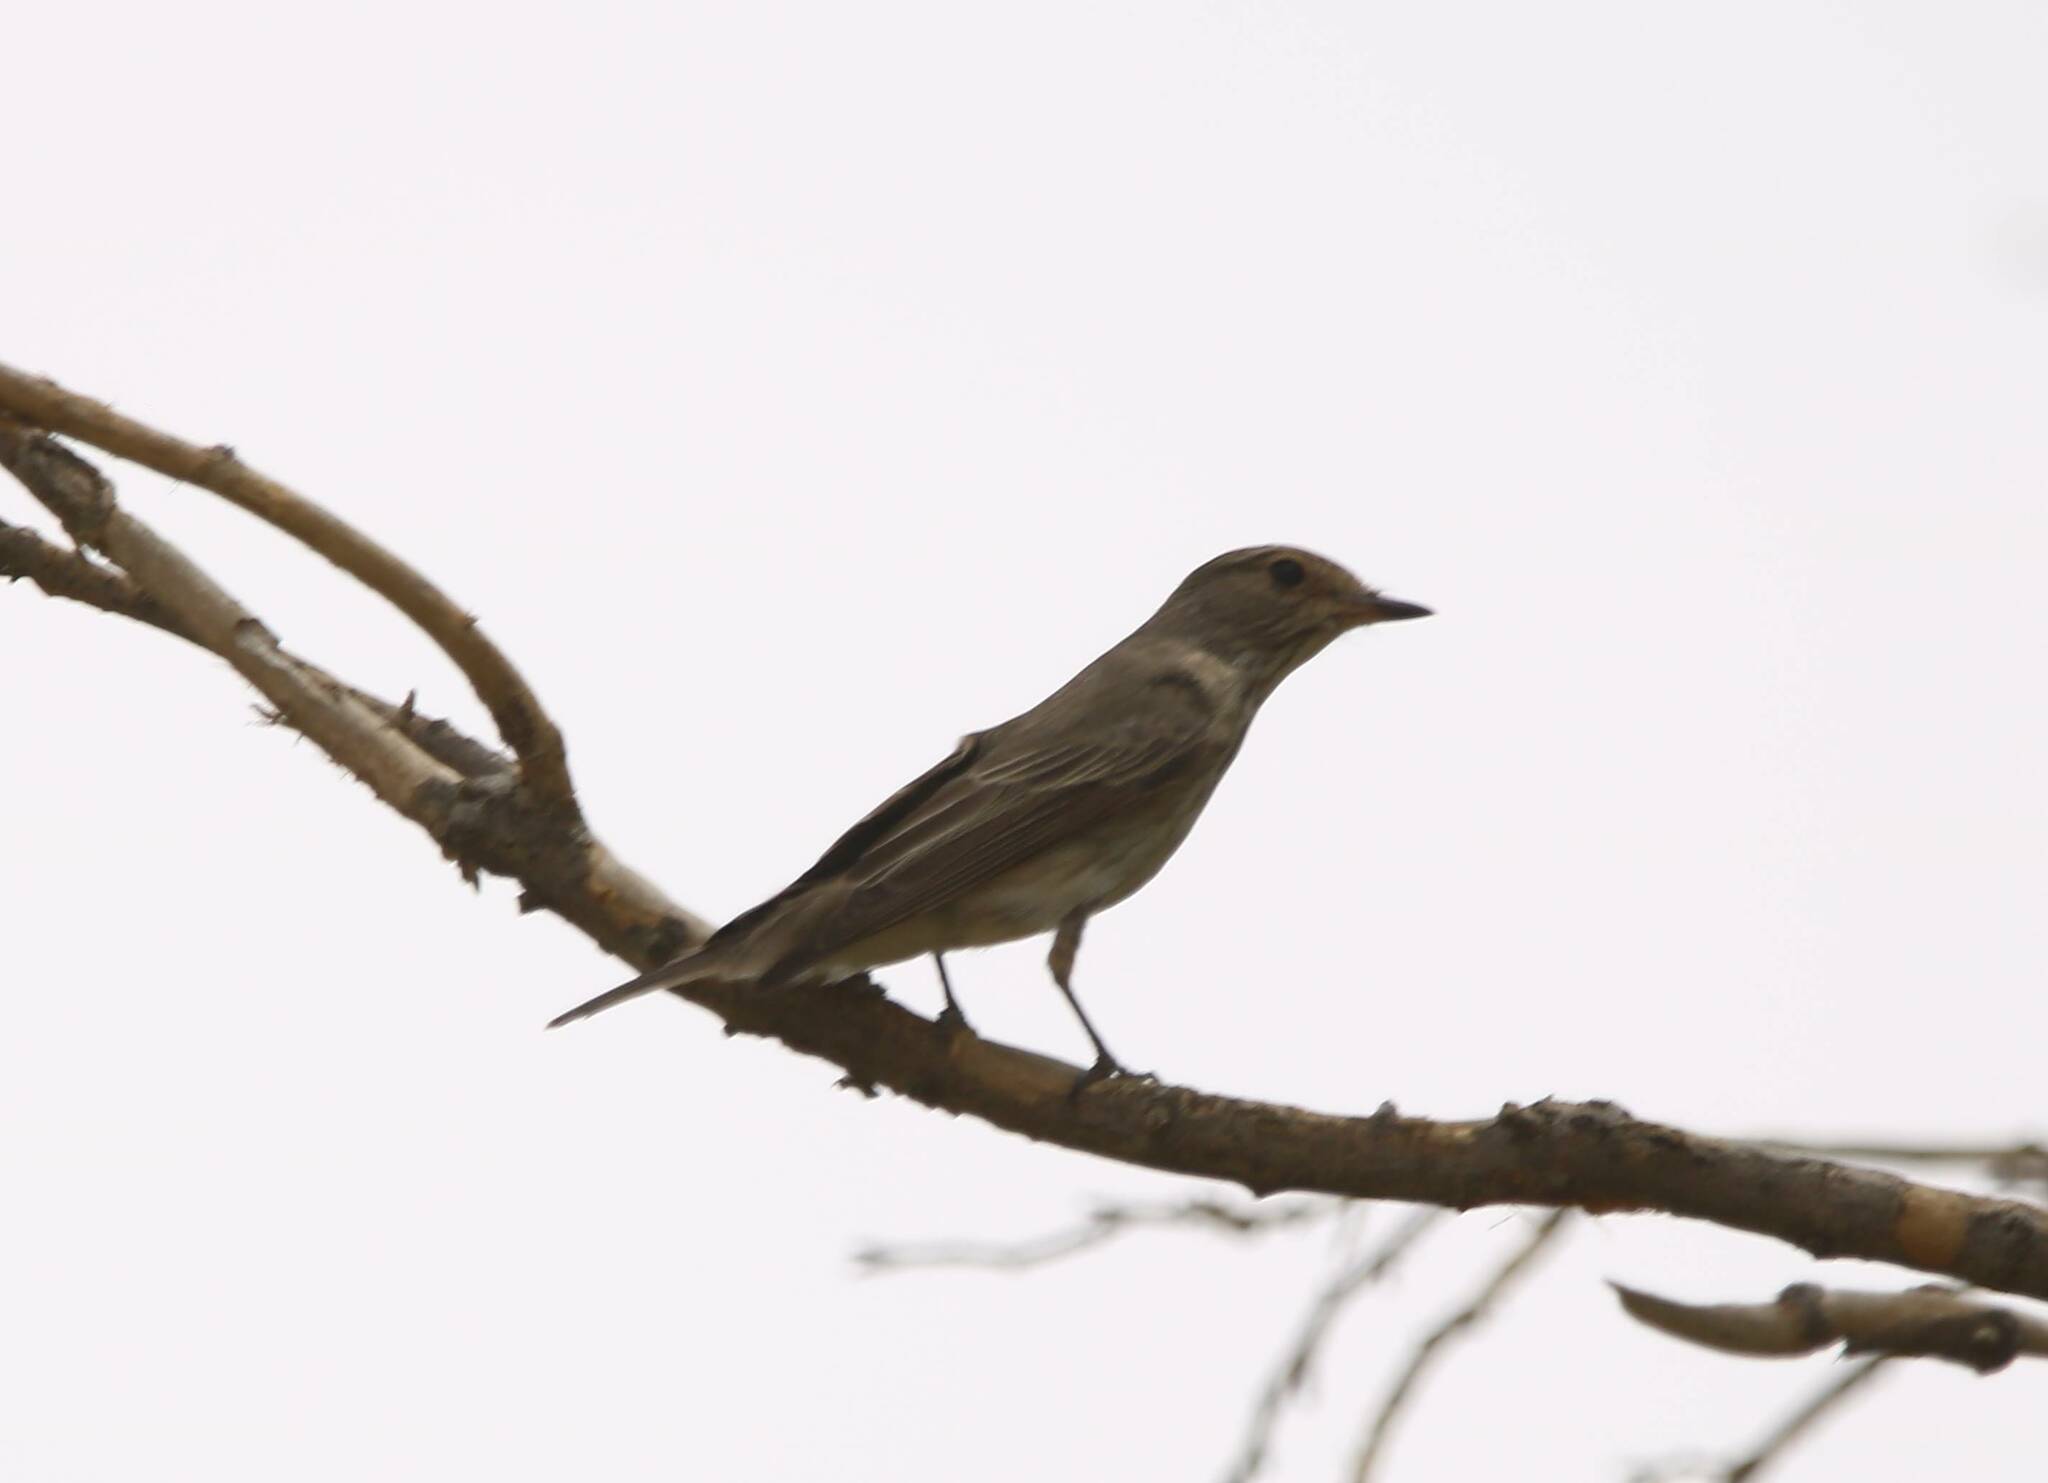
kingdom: Animalia
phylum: Chordata
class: Aves
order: Passeriformes
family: Muscicapidae
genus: Muscicapa
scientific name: Muscicapa striata
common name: Spotted flycatcher
